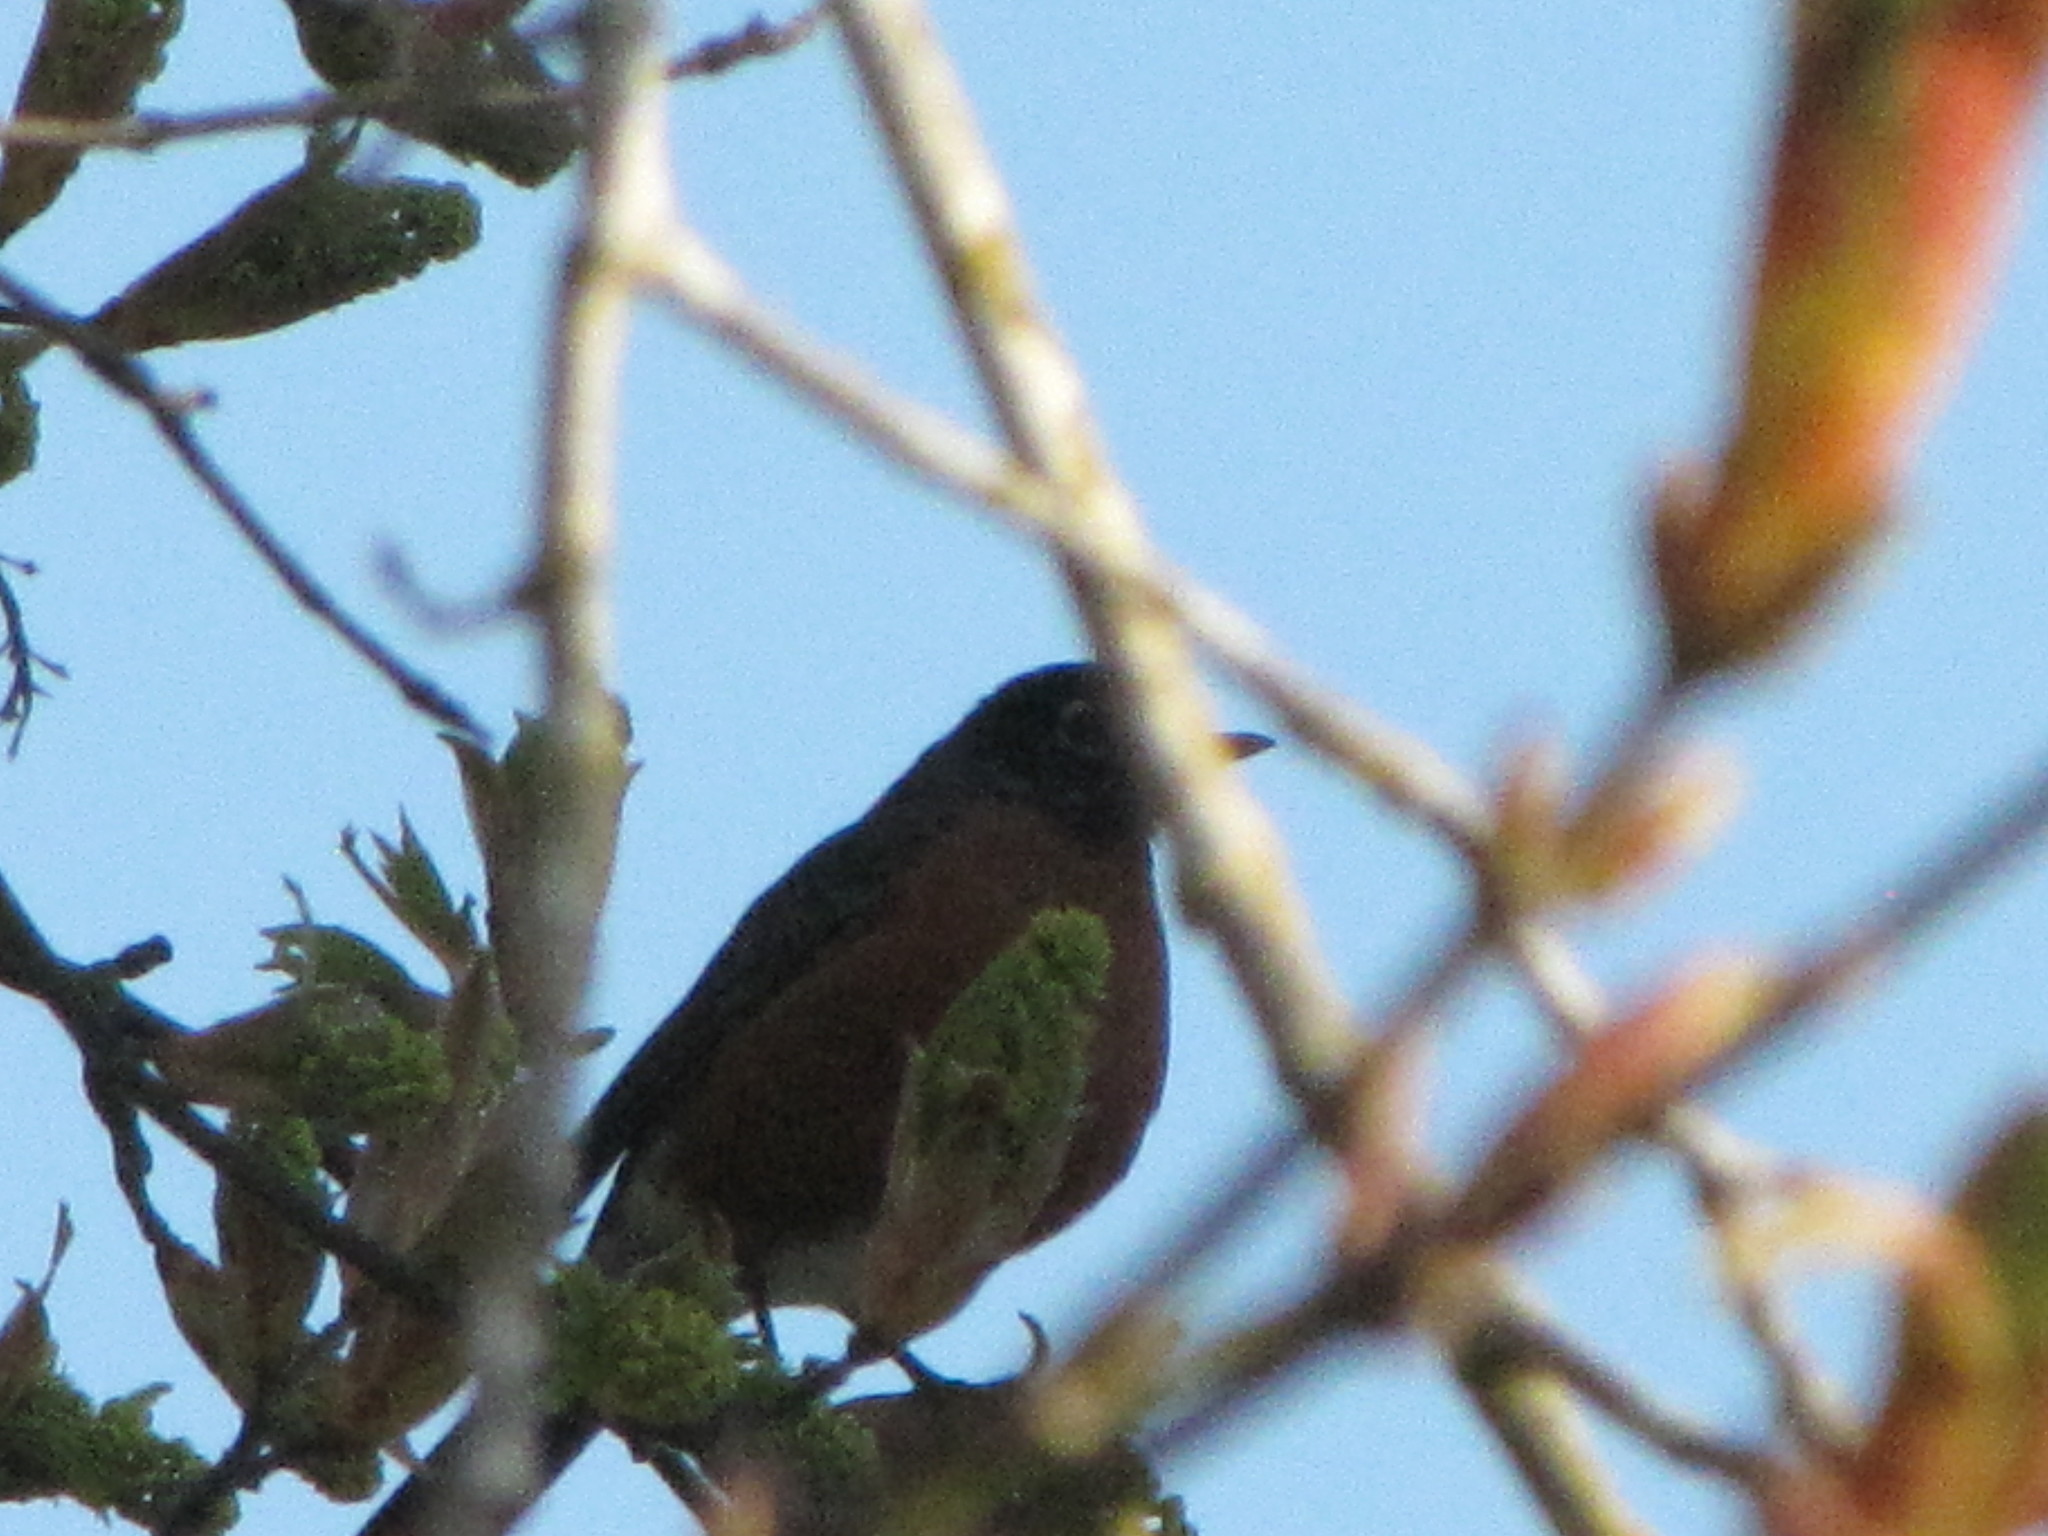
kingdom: Animalia
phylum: Chordata
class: Aves
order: Passeriformes
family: Turdidae
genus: Turdus
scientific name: Turdus migratorius
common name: American robin
